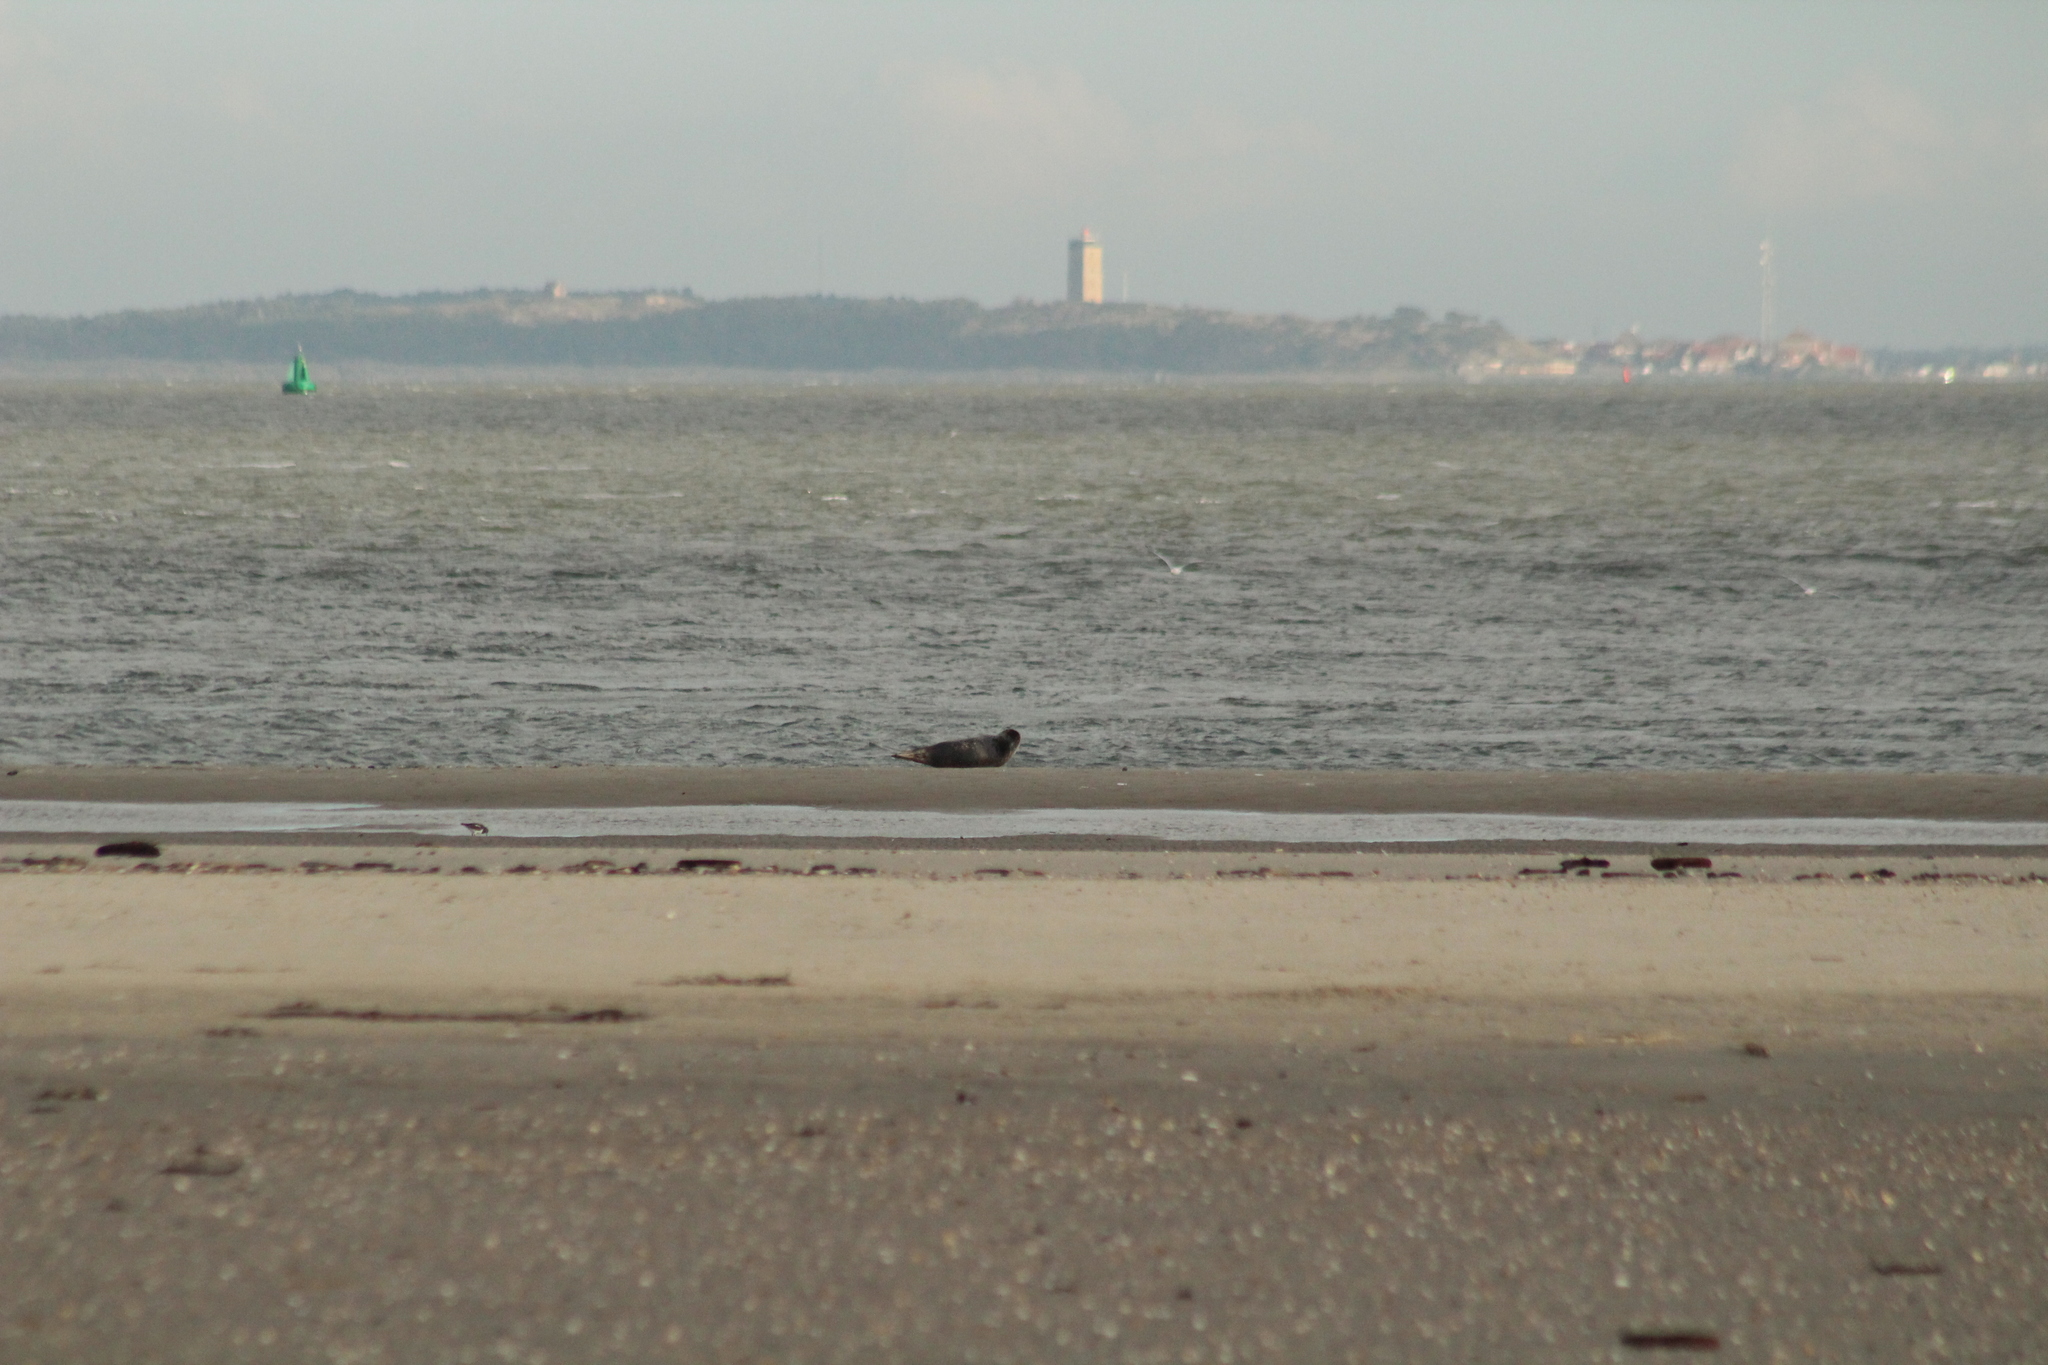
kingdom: Animalia
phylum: Chordata
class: Mammalia
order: Carnivora
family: Phocidae
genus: Phoca
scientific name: Phoca vitulina
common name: Harbor seal
